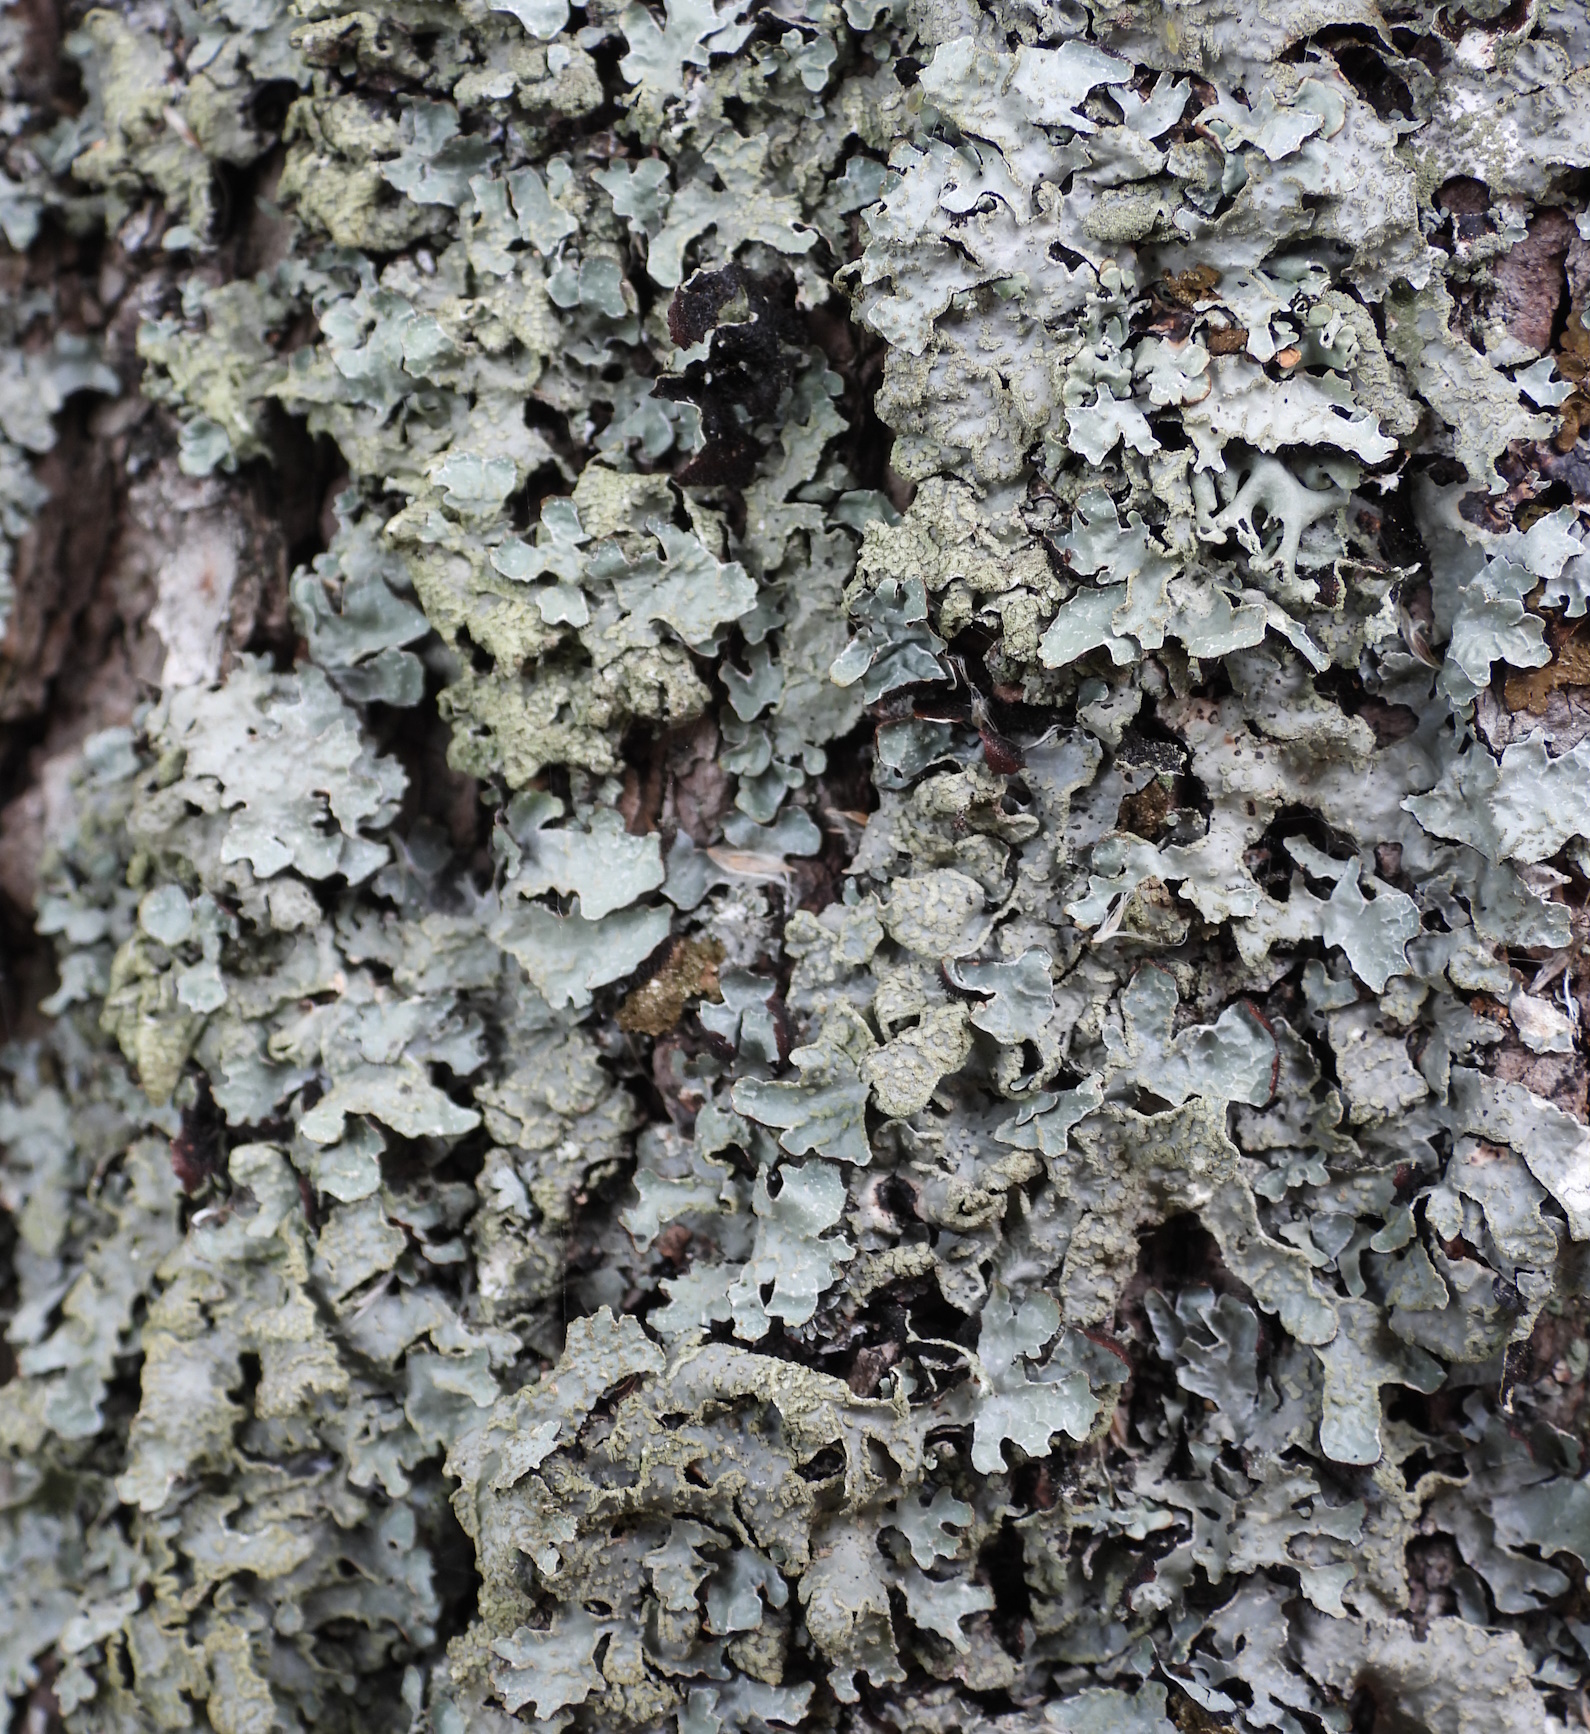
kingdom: Fungi
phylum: Ascomycota
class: Lecanoromycetes
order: Lecanorales
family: Parmeliaceae
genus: Parmelia
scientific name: Parmelia sulcata
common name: Netted shield lichen
